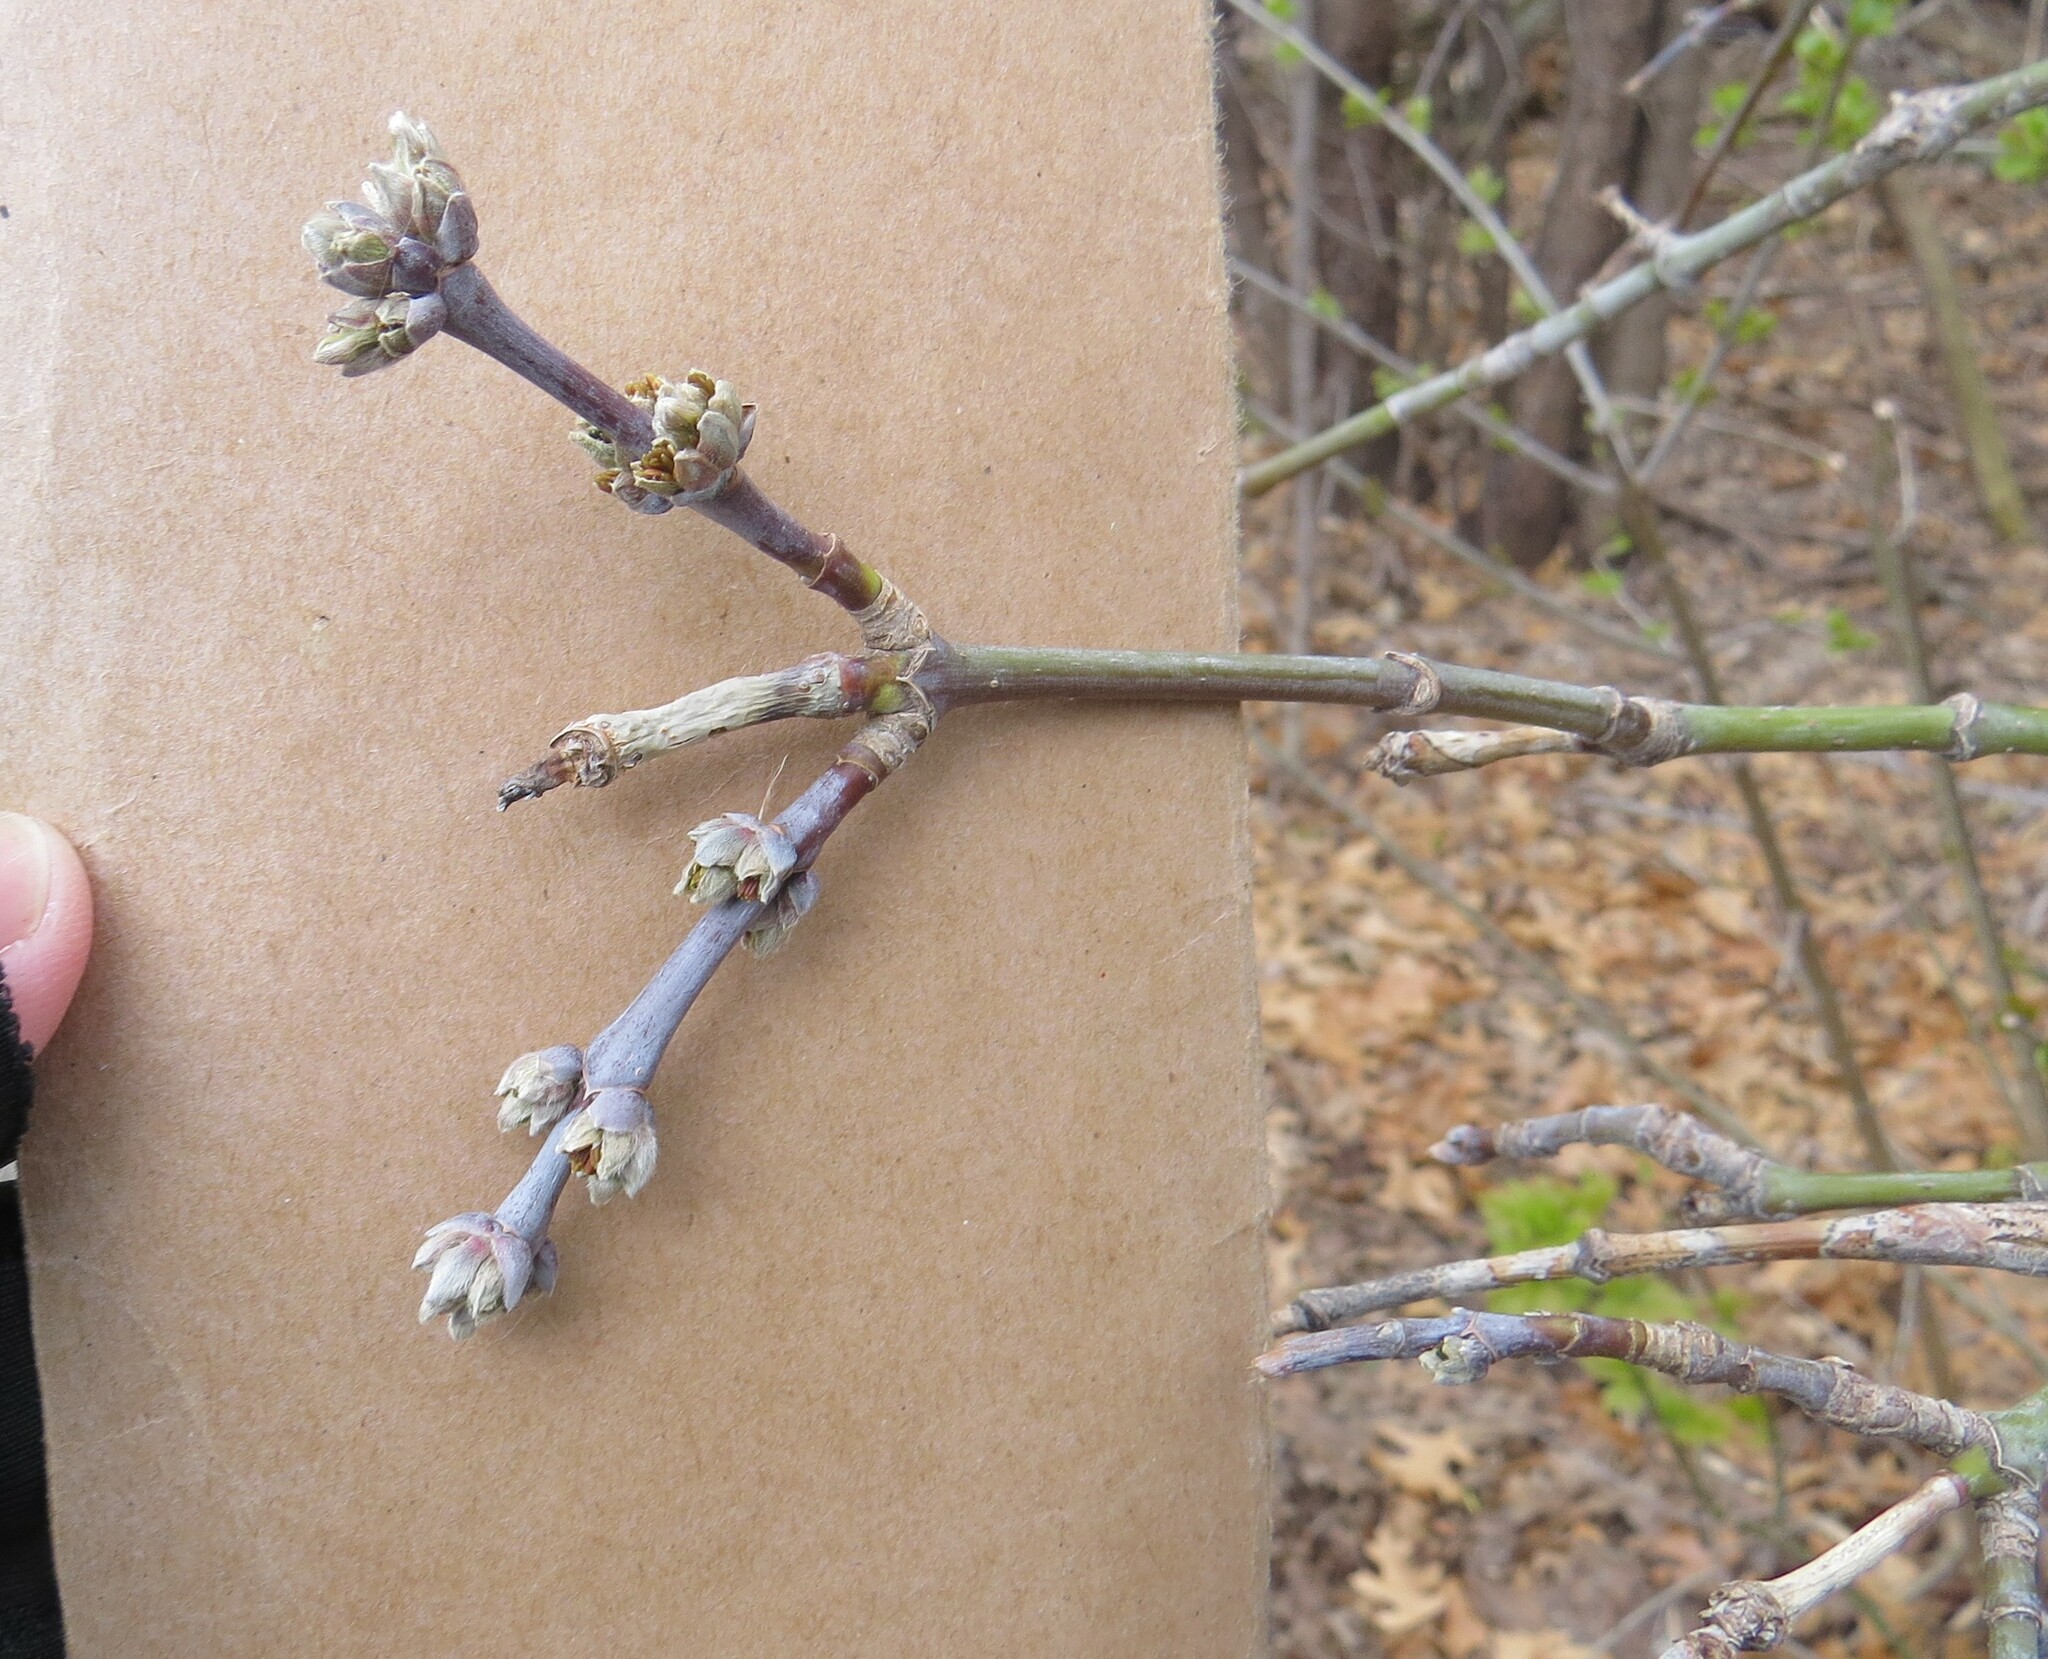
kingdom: Plantae
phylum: Tracheophyta
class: Magnoliopsida
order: Sapindales
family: Sapindaceae
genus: Acer
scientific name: Acer negundo
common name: Ashleaf maple
